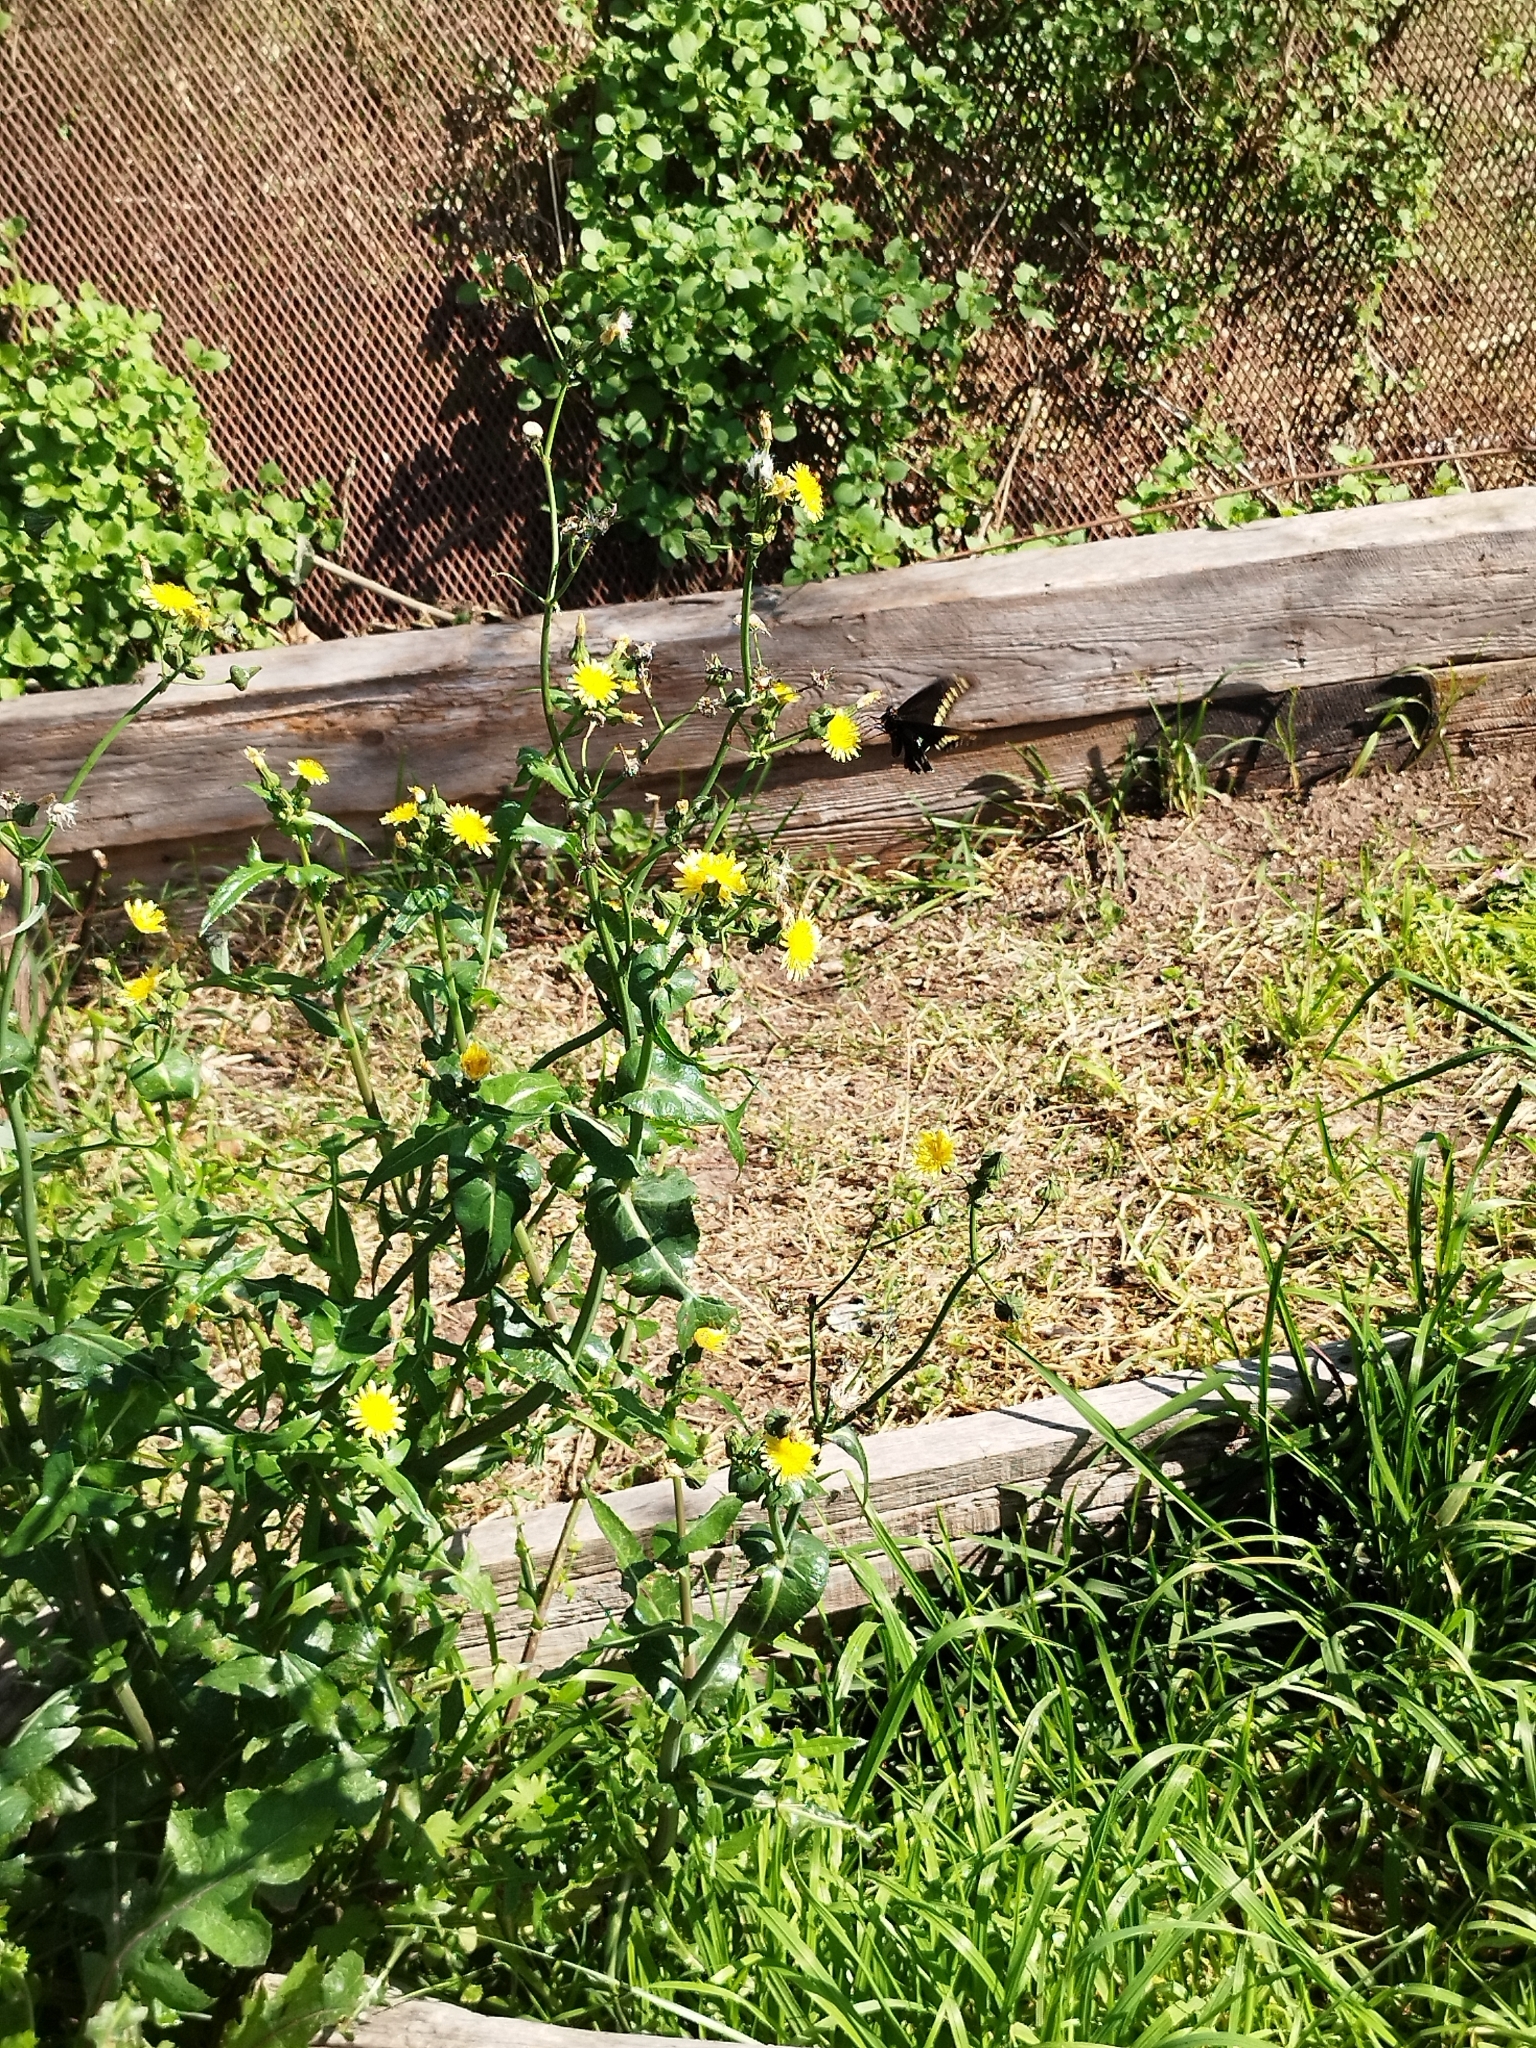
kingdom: Animalia
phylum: Arthropoda
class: Insecta
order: Lepidoptera
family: Papilionidae
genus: Battus
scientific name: Battus polydamas
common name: Polydamas swallowtail
